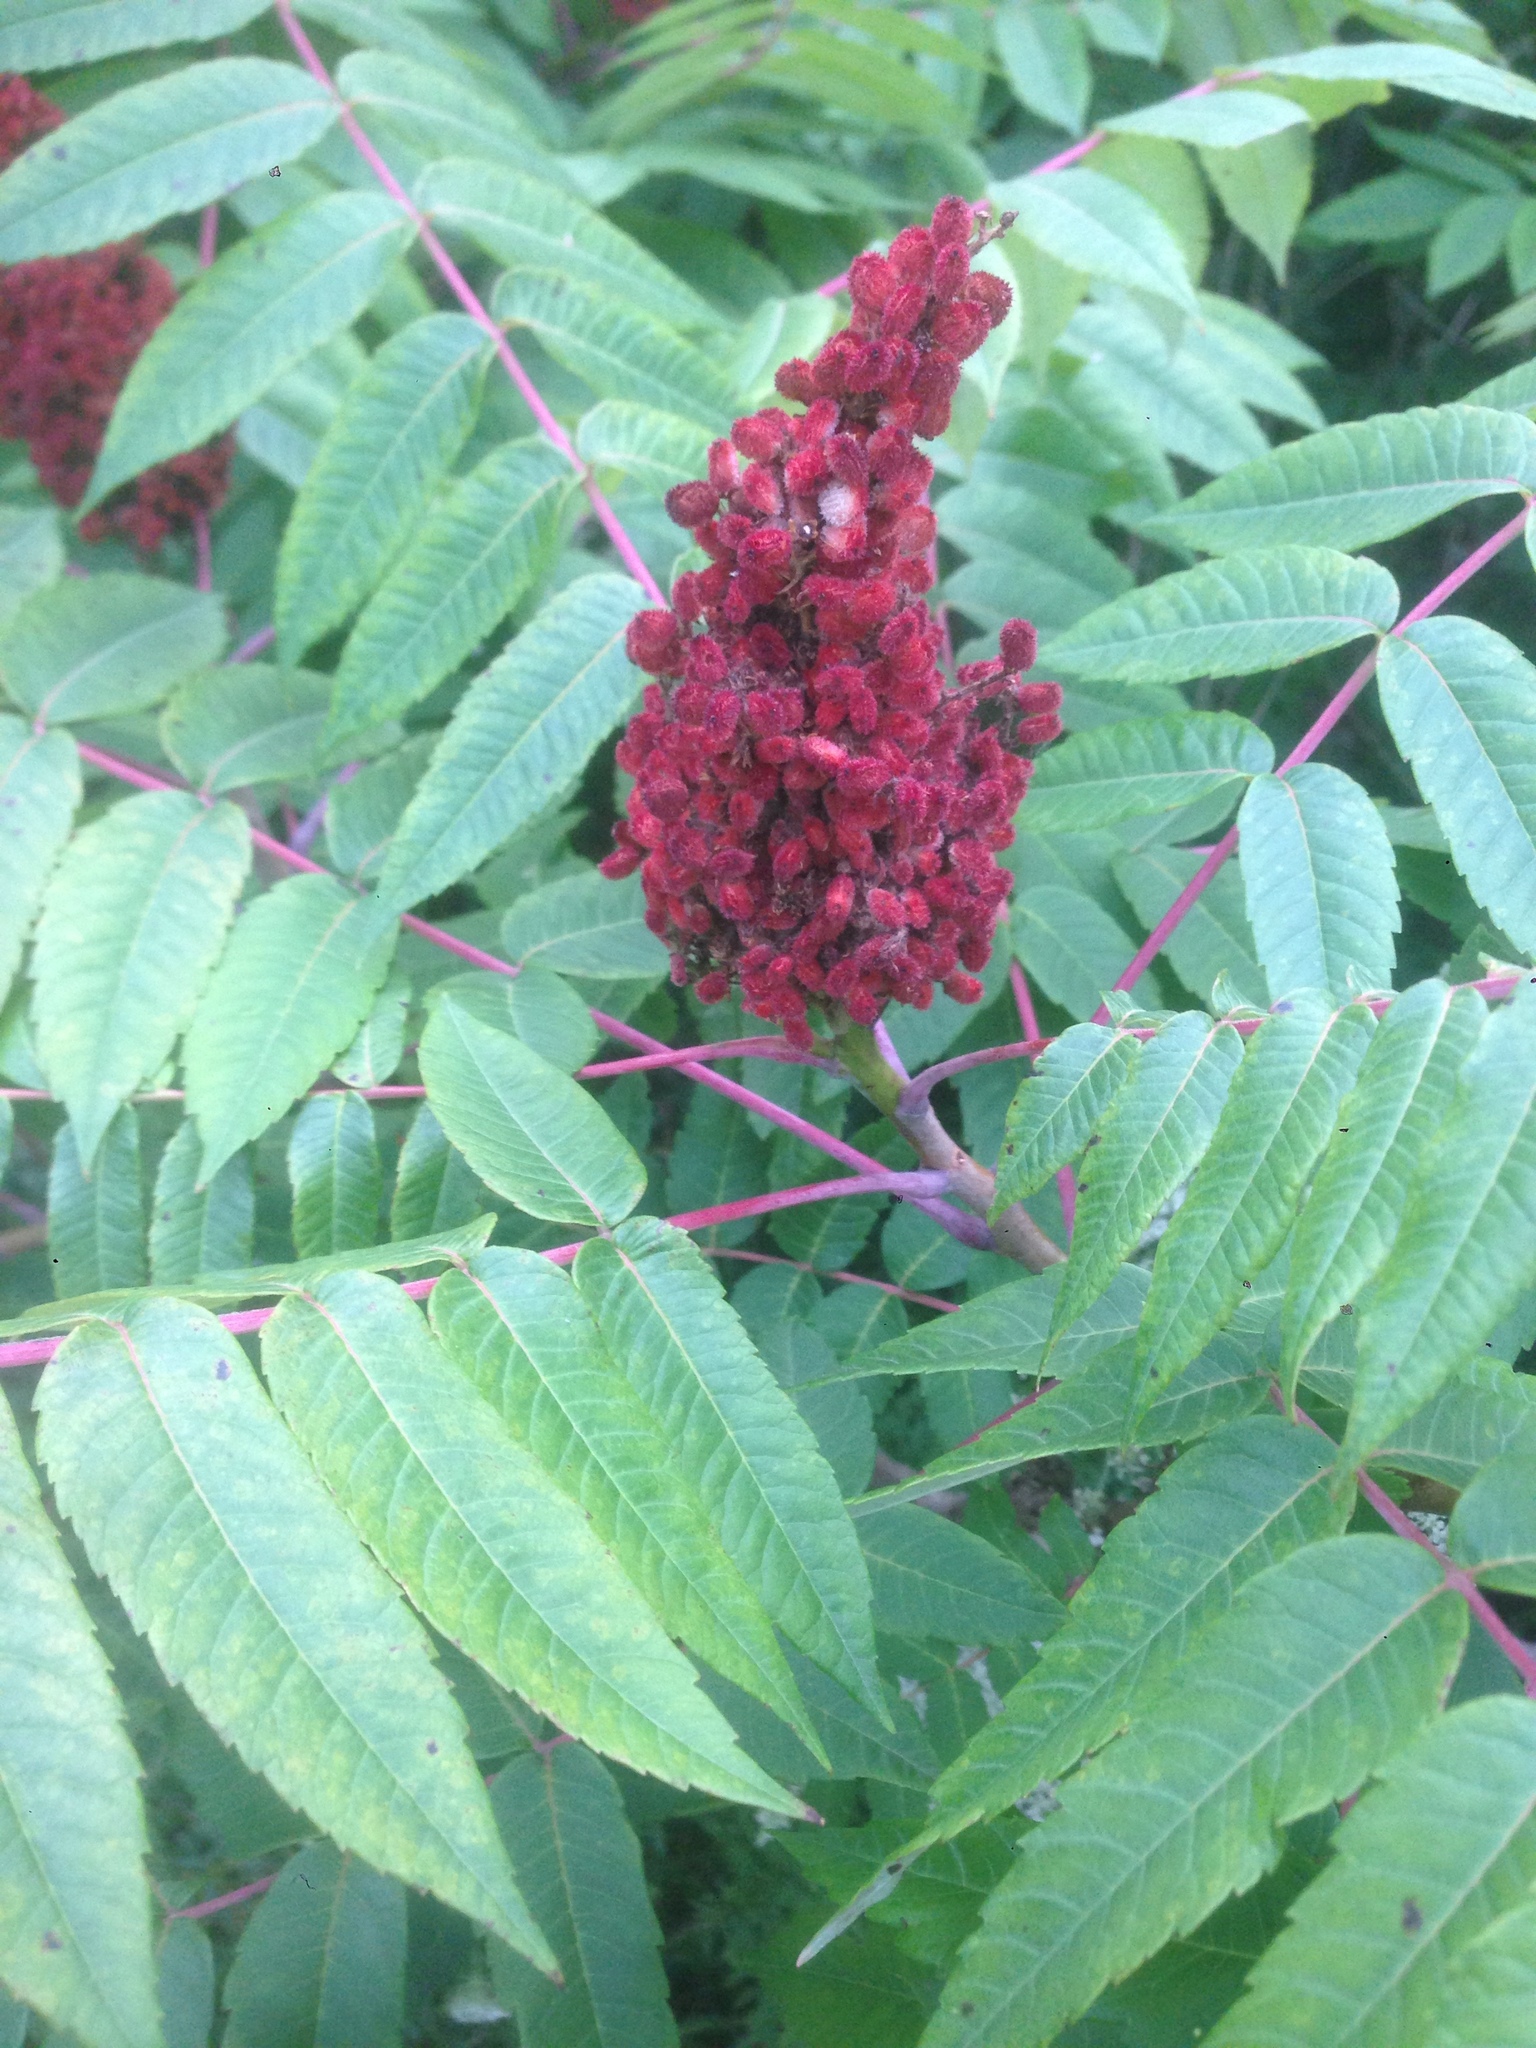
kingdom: Plantae
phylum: Tracheophyta
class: Magnoliopsida
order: Sapindales
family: Anacardiaceae
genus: Rhus
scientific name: Rhus glabra
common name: Scarlet sumac
